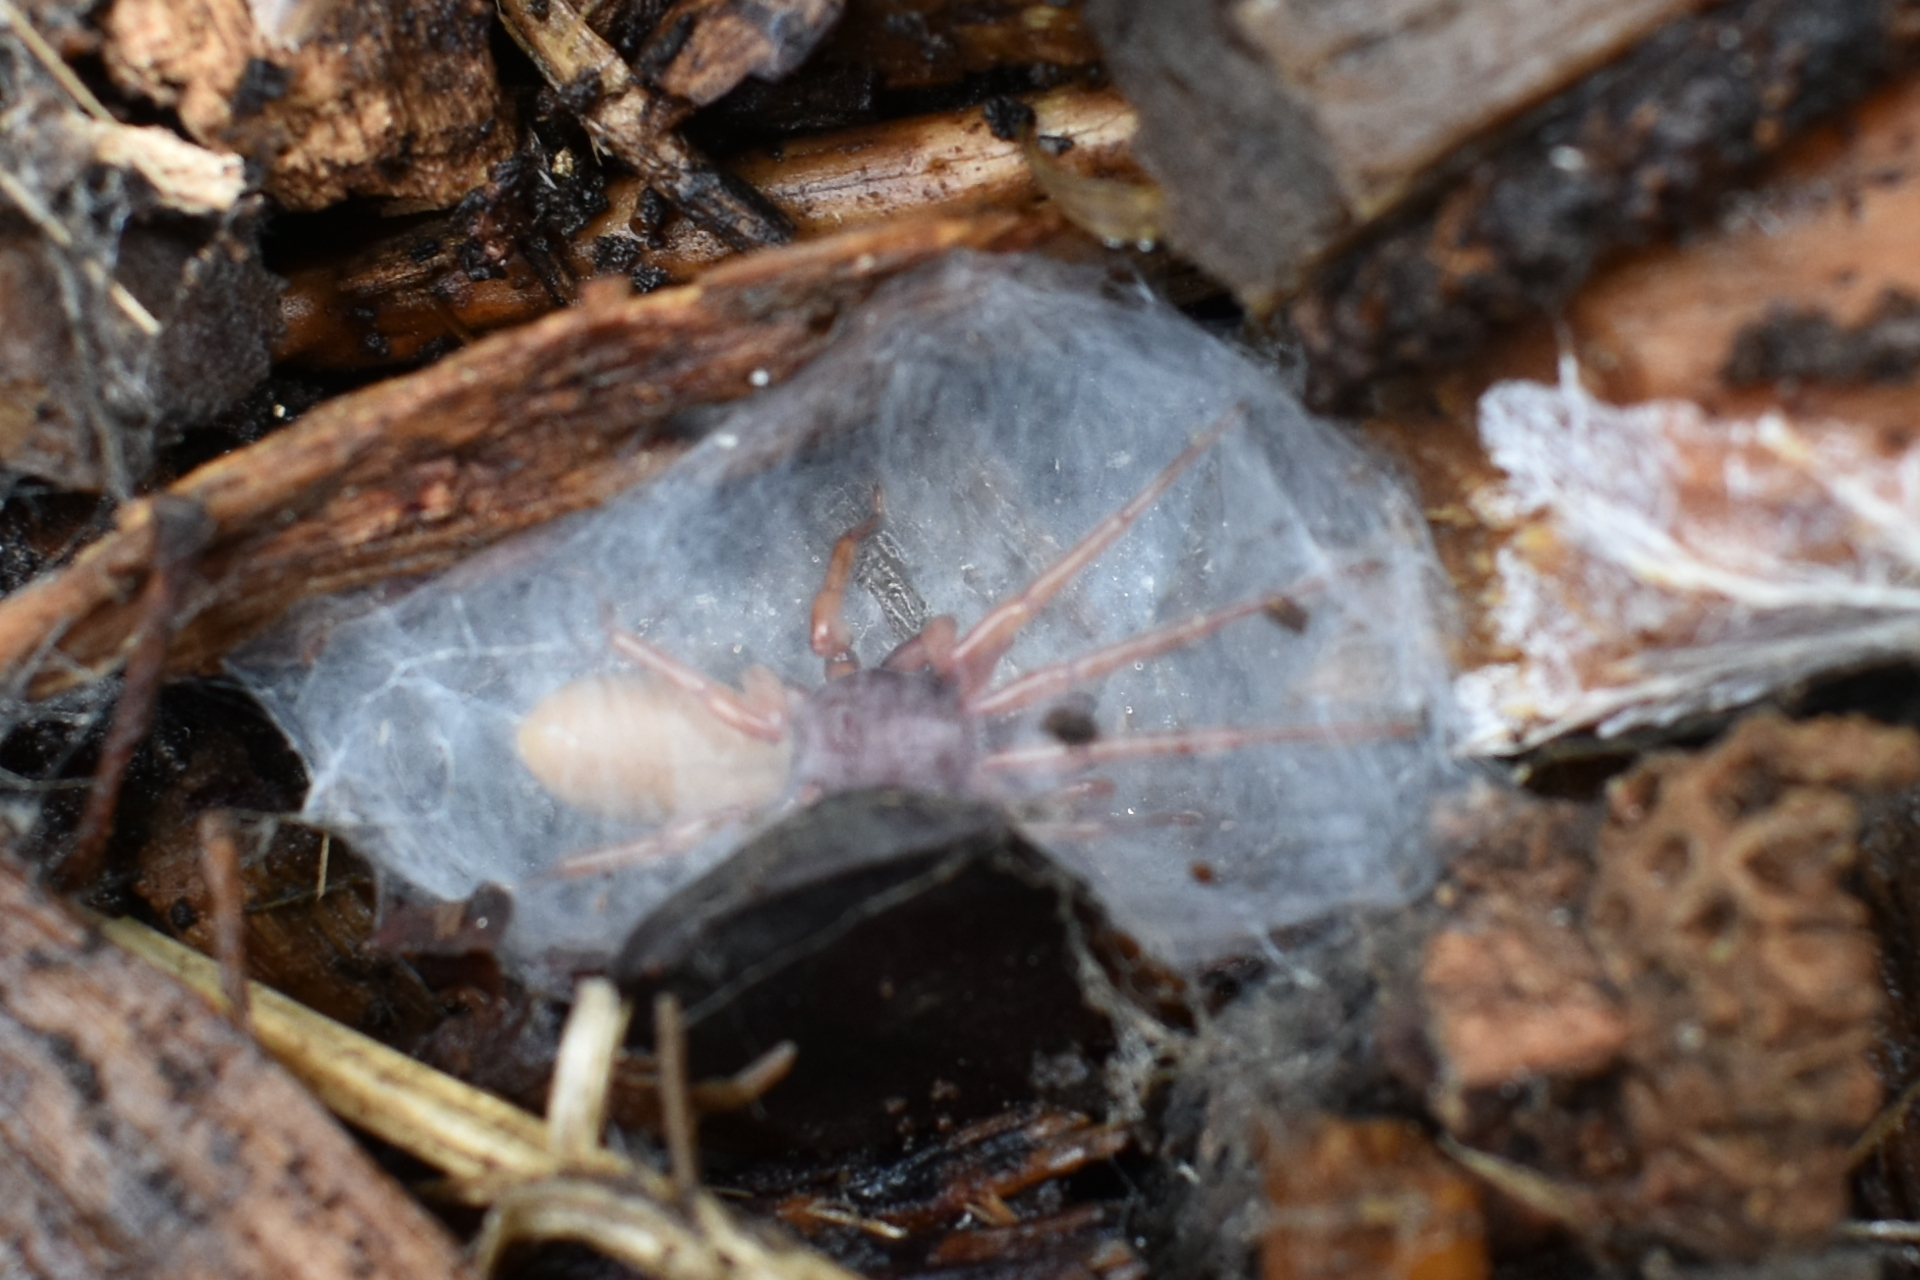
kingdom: Animalia
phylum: Arthropoda
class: Arachnida
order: Araneae
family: Dysderidae
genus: Dysdera
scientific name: Dysdera crocata
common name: Woodlouse spider
